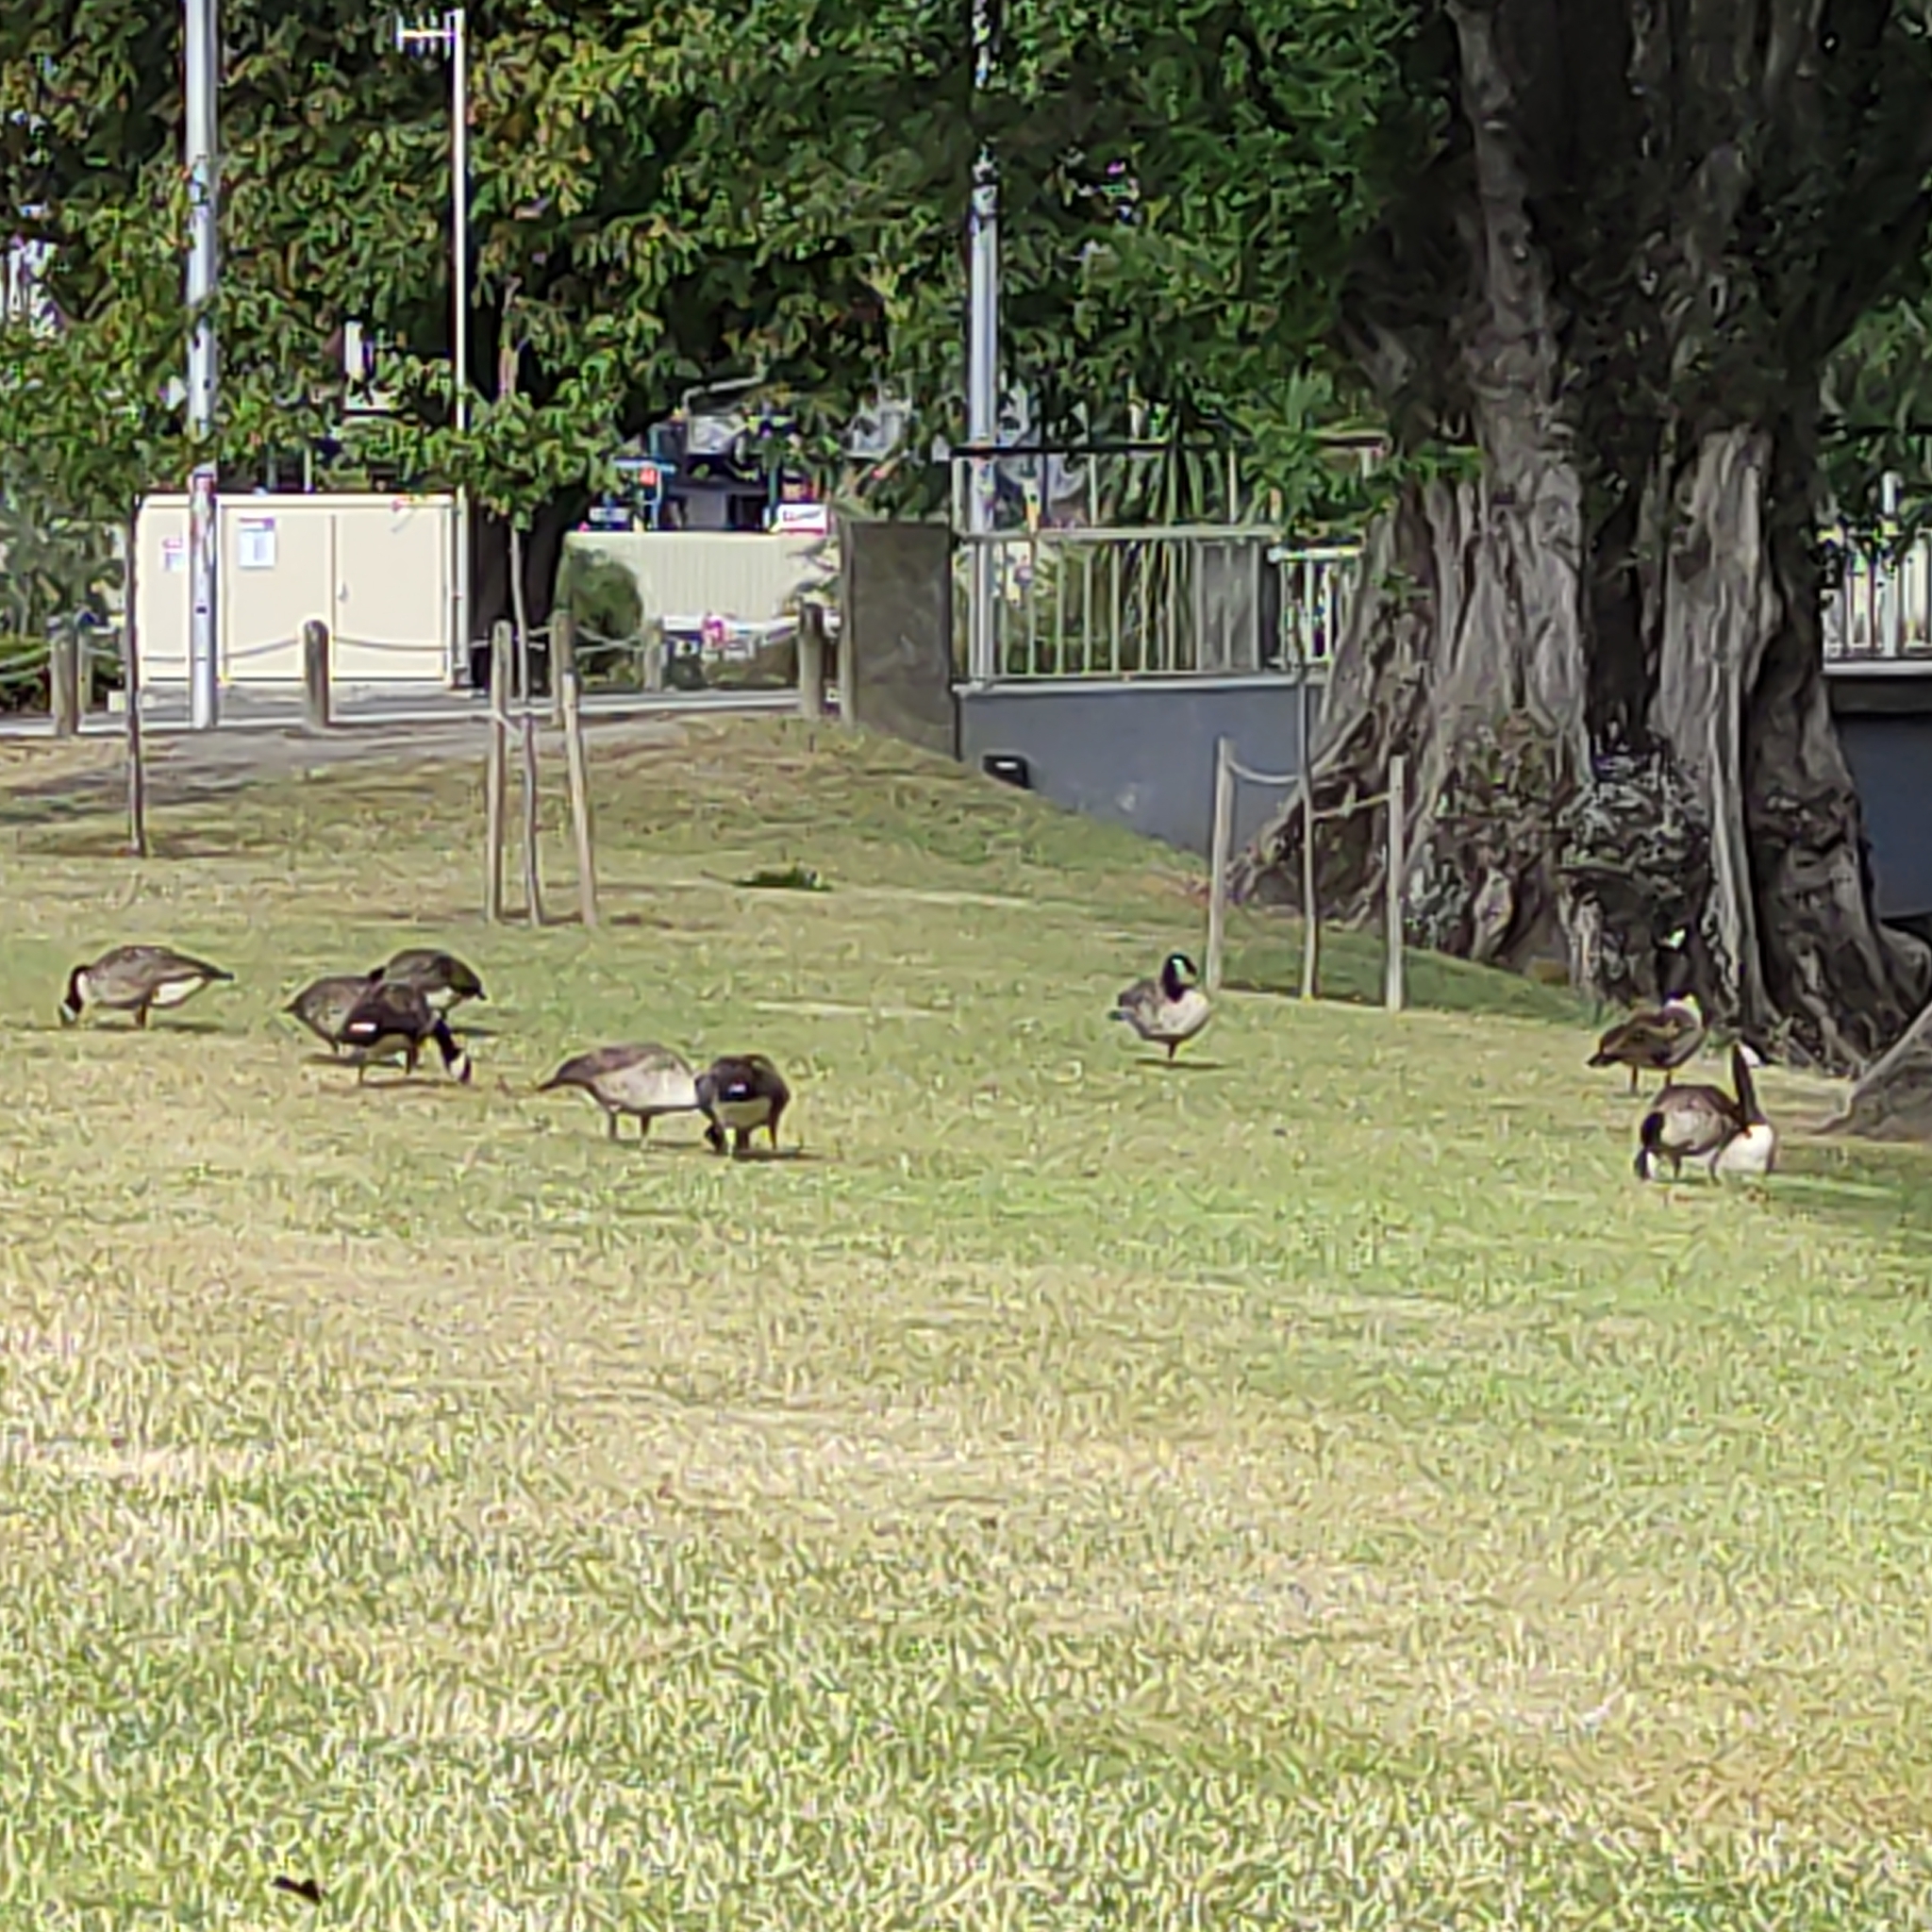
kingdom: Animalia
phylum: Chordata
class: Aves
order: Anseriformes
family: Anatidae
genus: Branta
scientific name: Branta canadensis
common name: Canada goose
